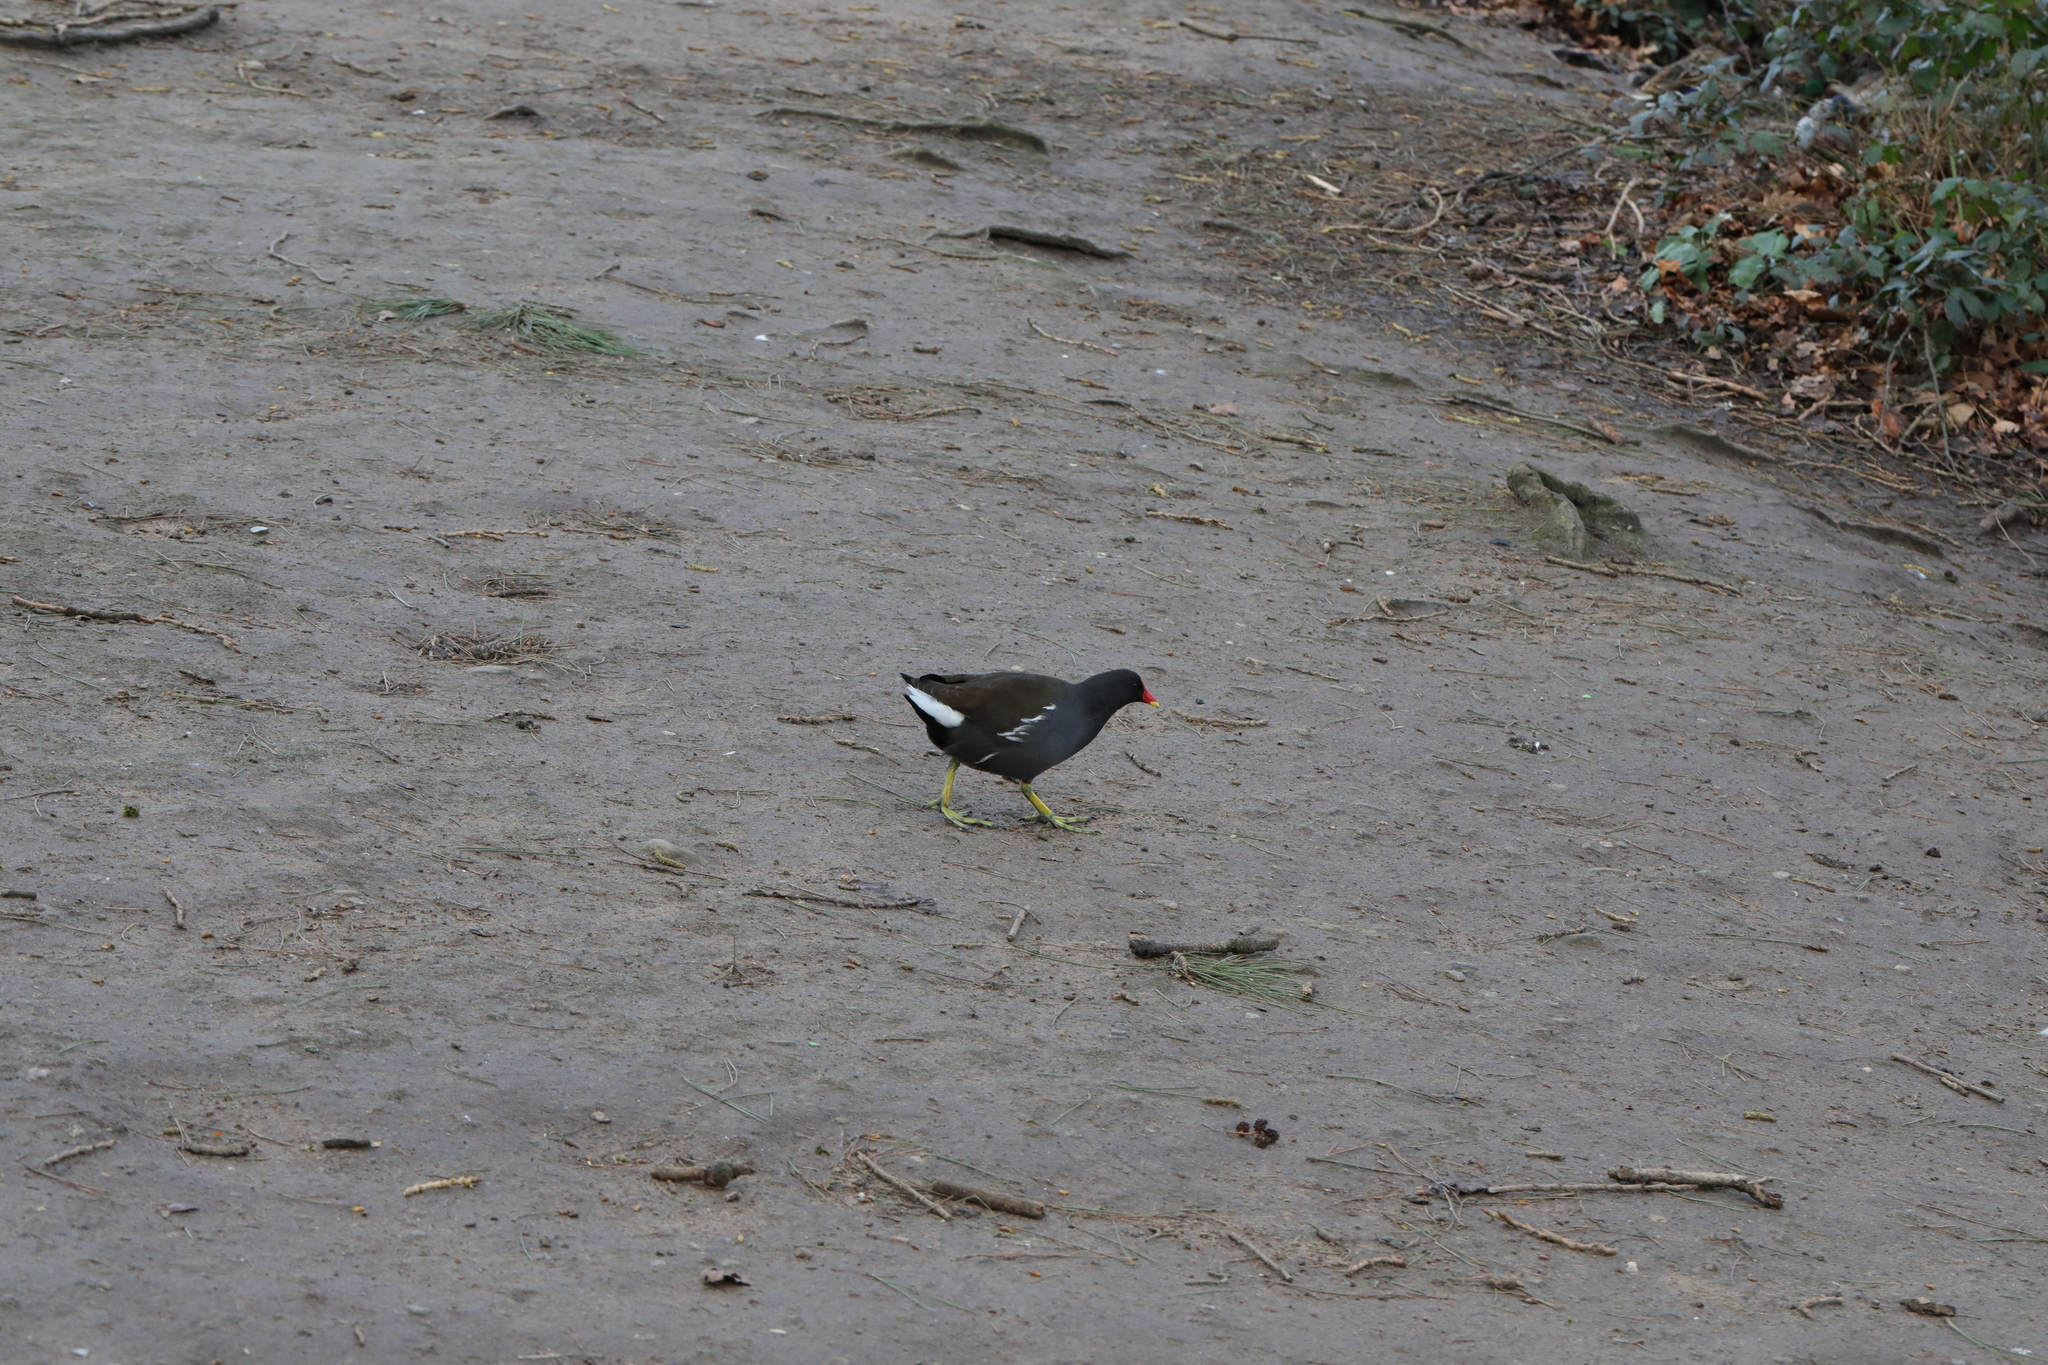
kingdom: Animalia
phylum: Chordata
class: Aves
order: Gruiformes
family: Rallidae
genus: Gallinula
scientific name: Gallinula chloropus
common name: Common moorhen
